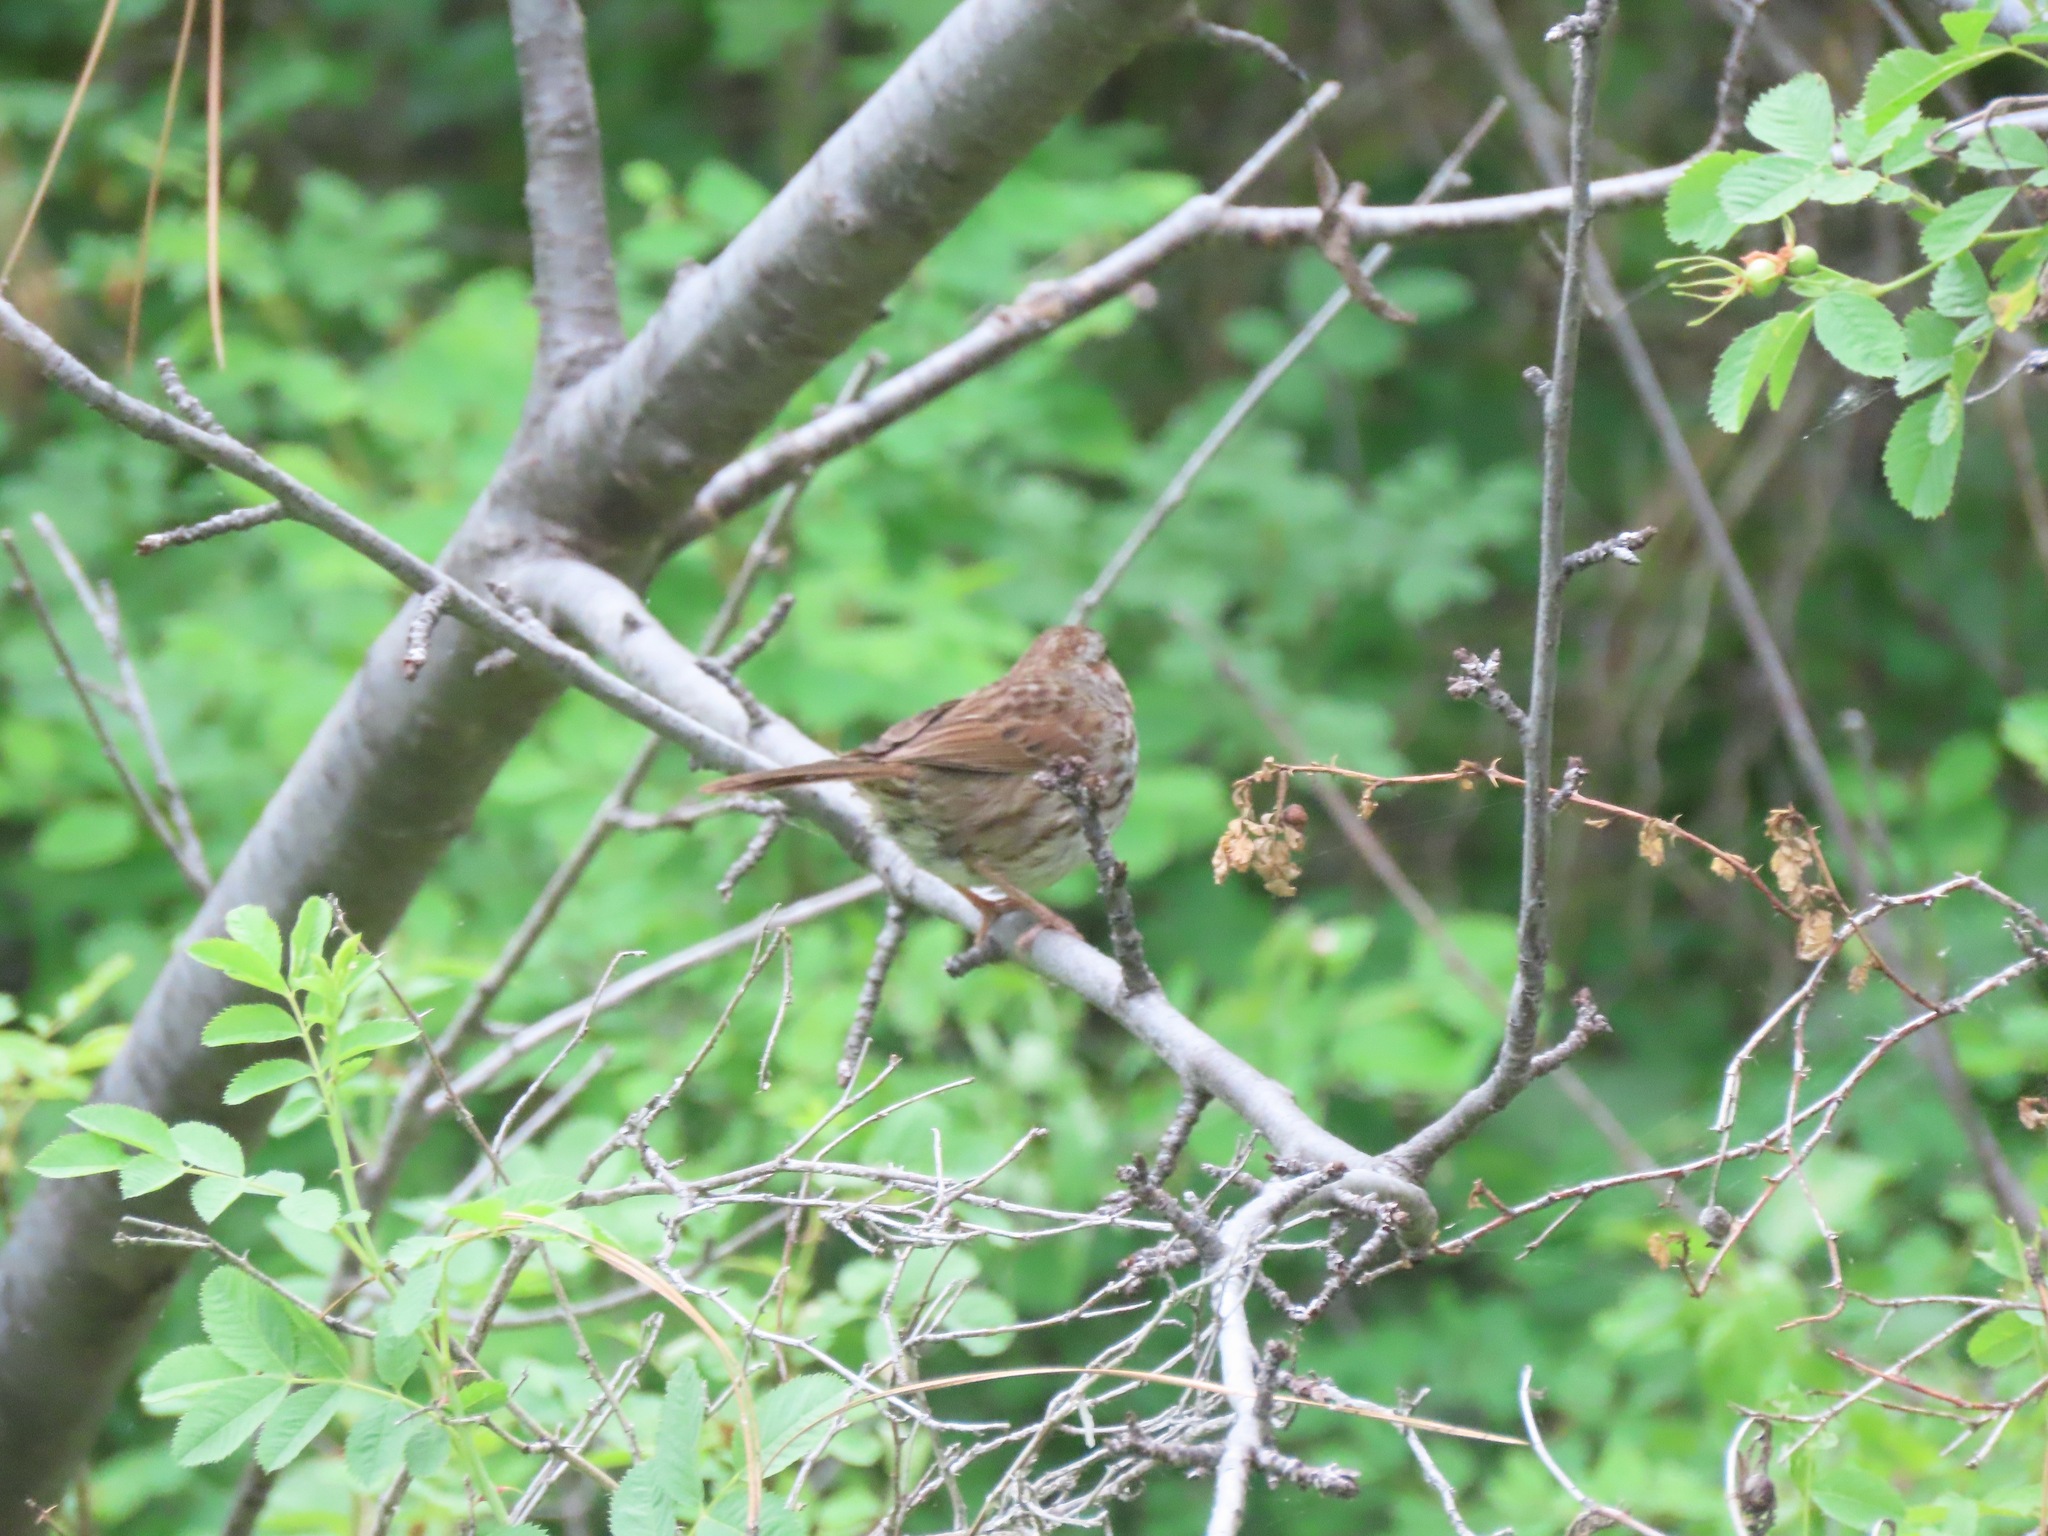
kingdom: Animalia
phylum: Chordata
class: Aves
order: Passeriformes
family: Passerellidae
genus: Melospiza
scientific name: Melospiza melodia
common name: Song sparrow
